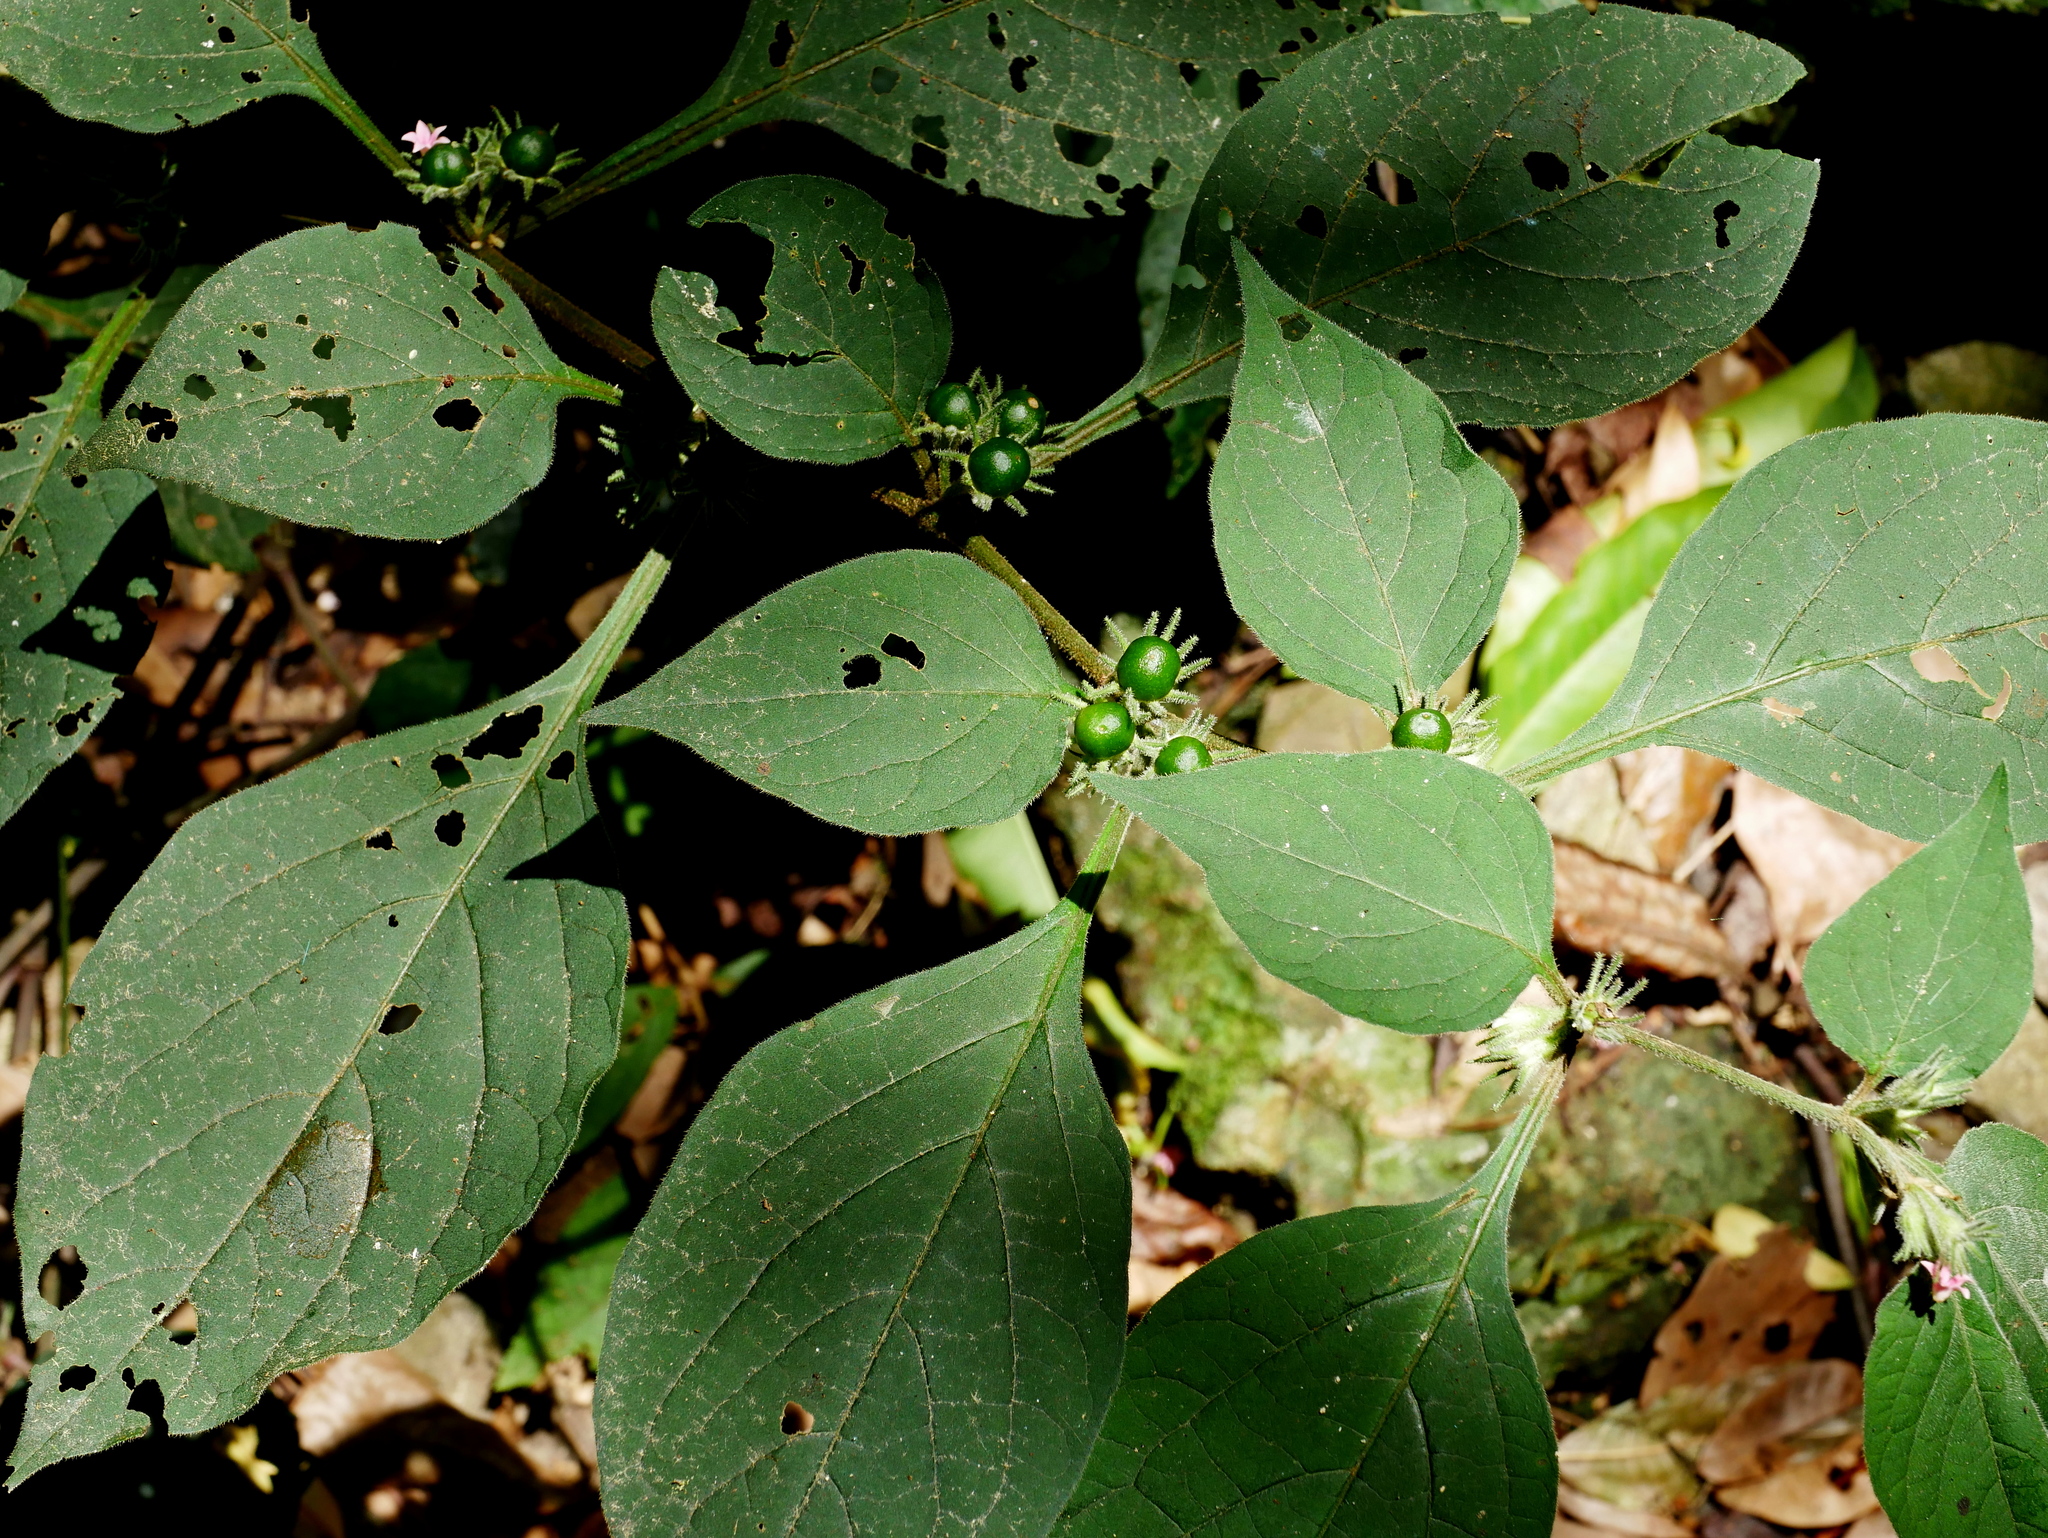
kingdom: Plantae
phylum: Tracheophyta
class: Magnoliopsida
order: Solanales
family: Solanaceae
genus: Lycianthes
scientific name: Lycianthes biflora
